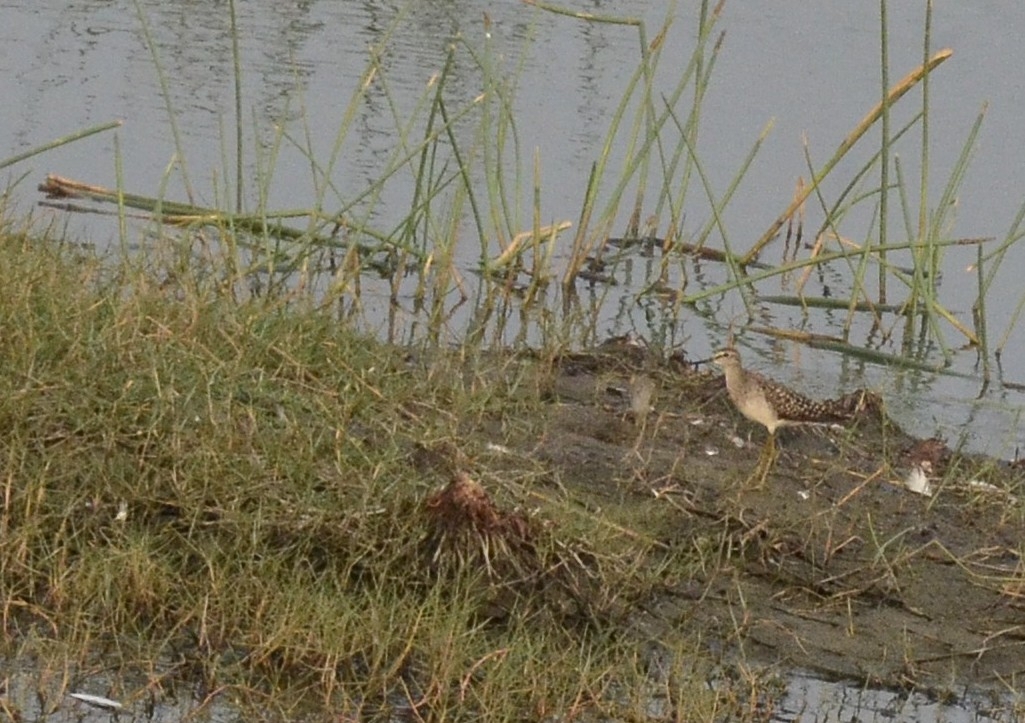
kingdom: Animalia
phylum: Chordata
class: Aves
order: Charadriiformes
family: Scolopacidae
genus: Tringa
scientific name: Tringa glareola
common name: Wood sandpiper
